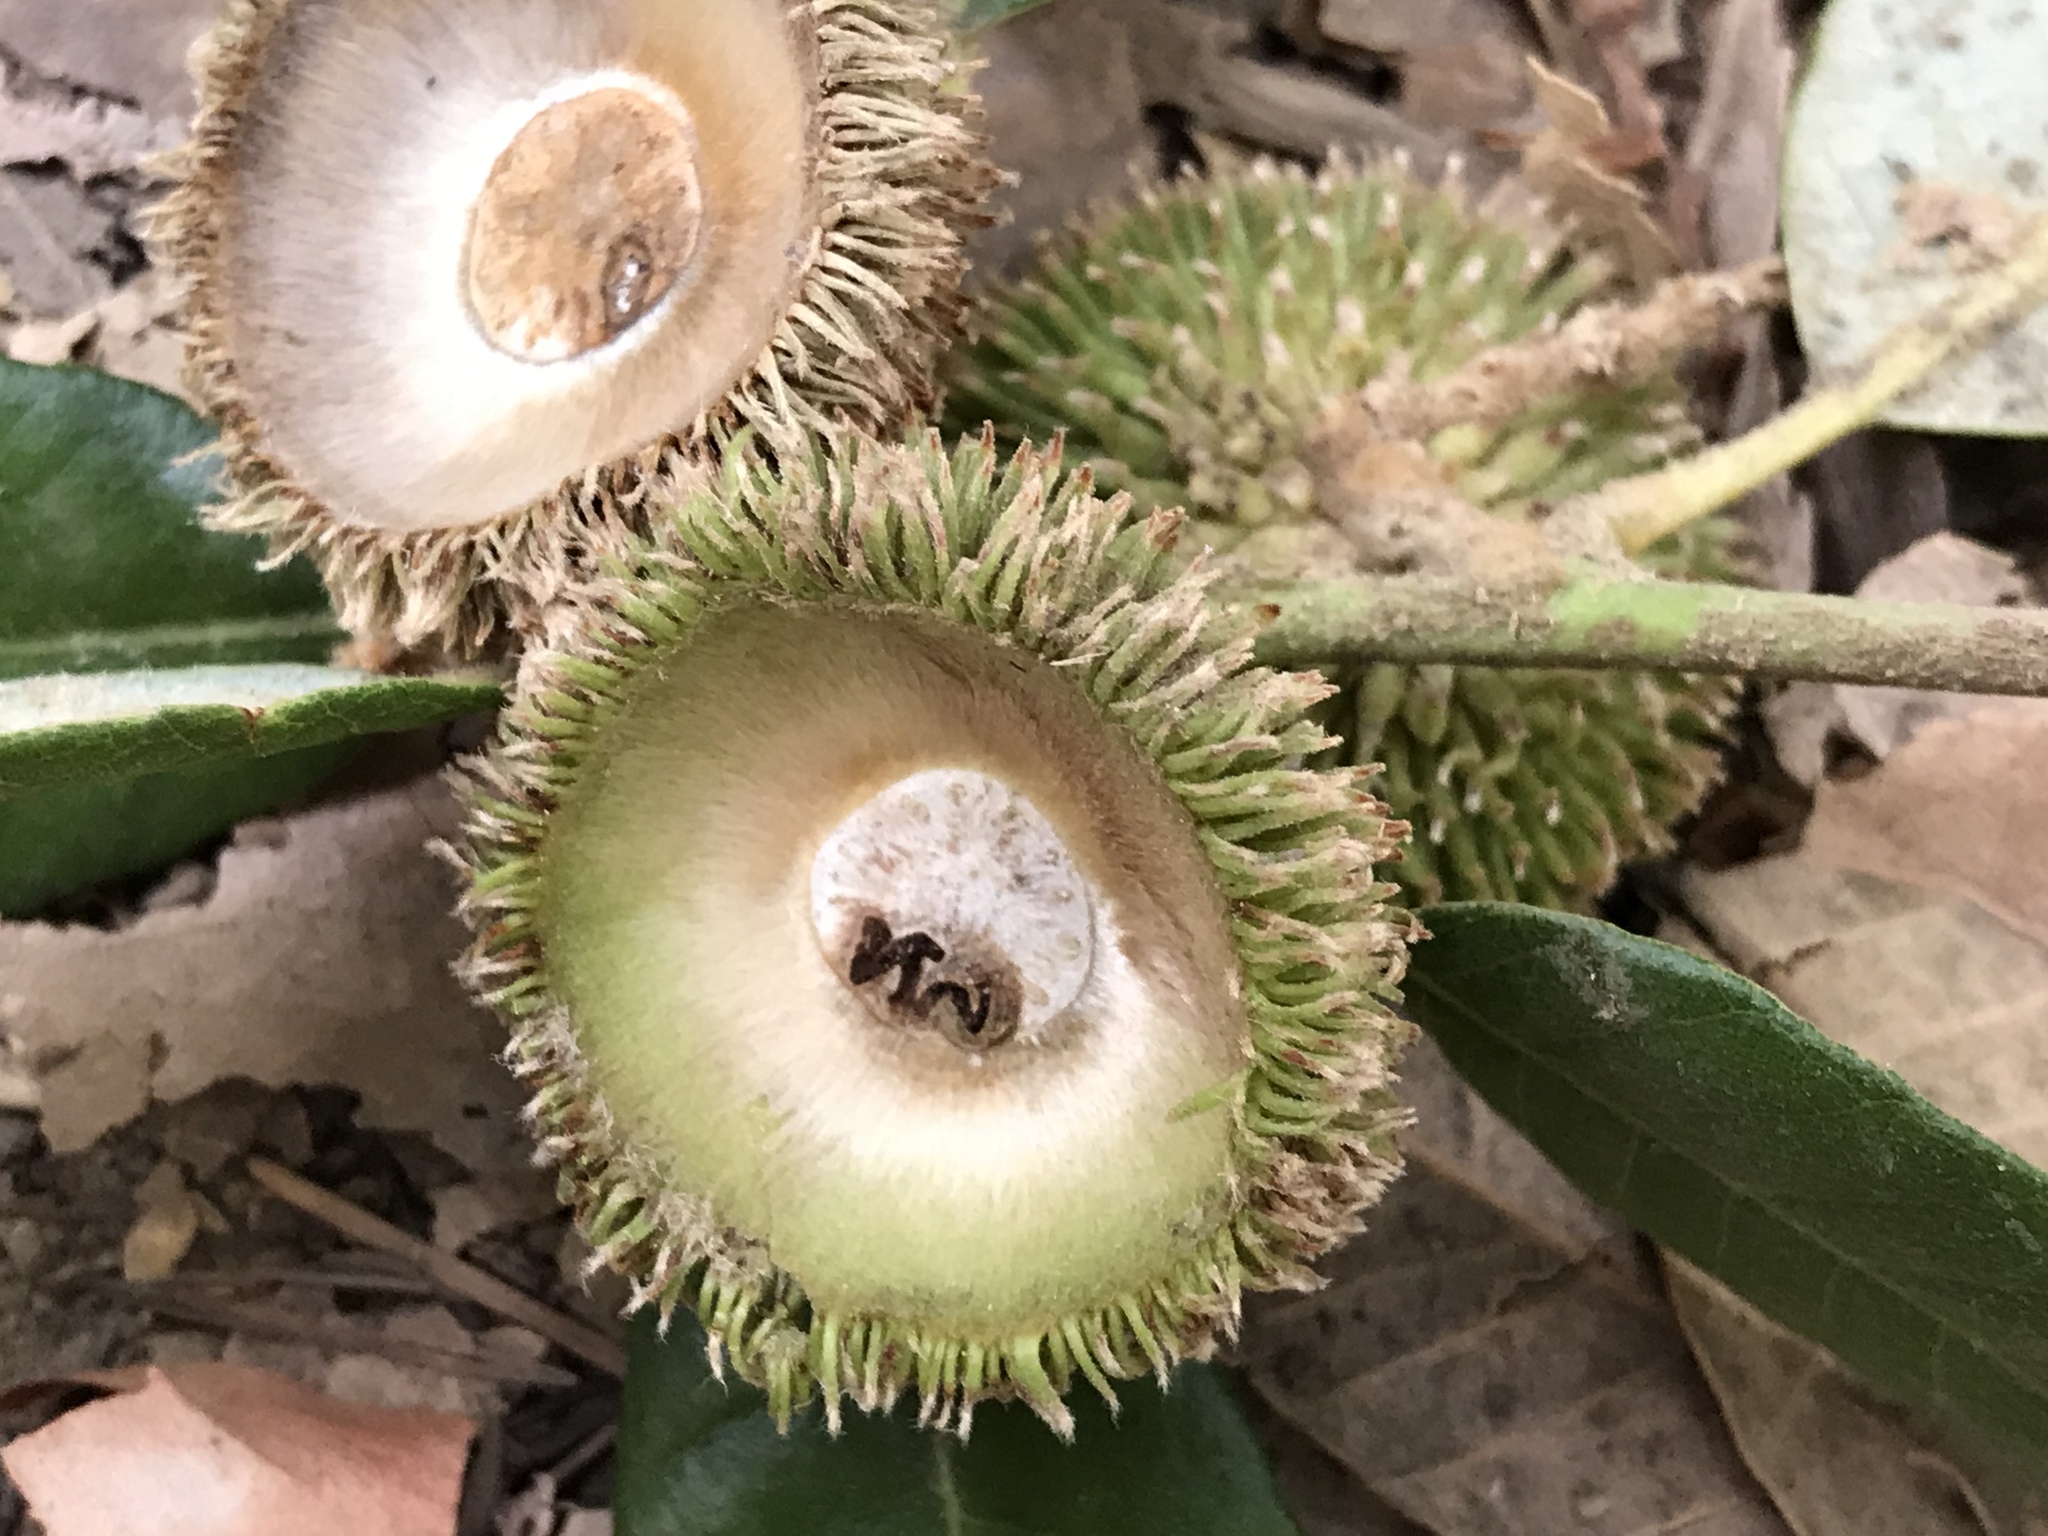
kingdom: Plantae
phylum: Tracheophyta
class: Magnoliopsida
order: Fagales
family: Fagaceae
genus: Notholithocarpus
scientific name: Notholithocarpus densiflorus
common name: Tan bark oak
